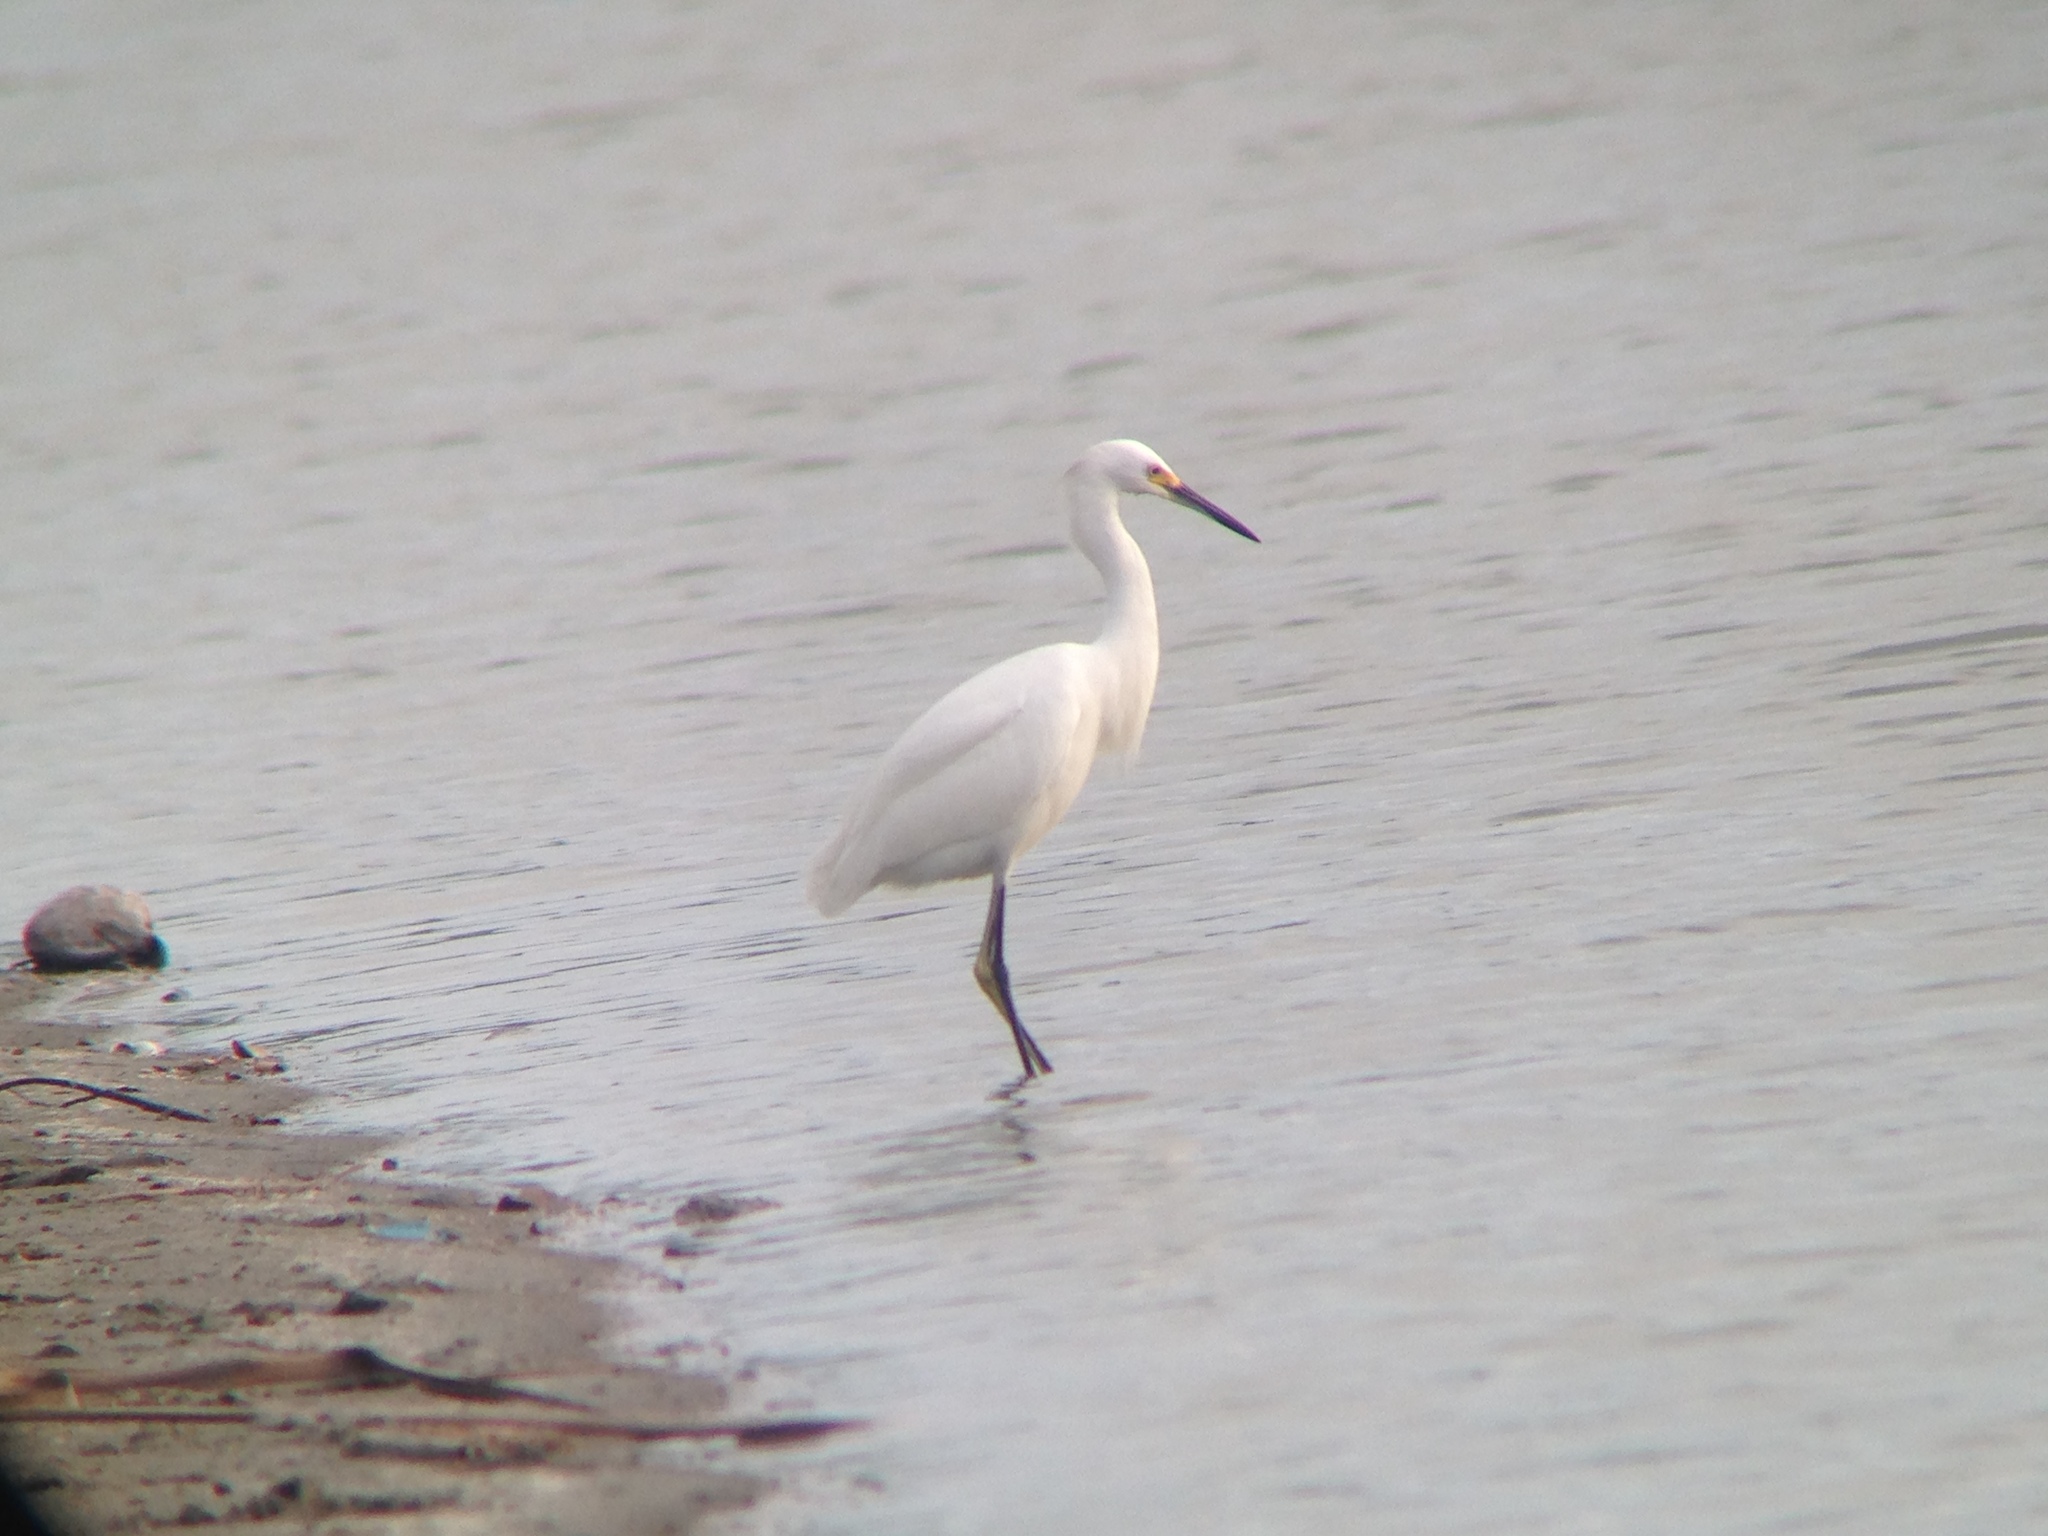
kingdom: Animalia
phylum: Chordata
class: Aves
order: Pelecaniformes
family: Ardeidae
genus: Egretta
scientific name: Egretta thula
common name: Snowy egret
